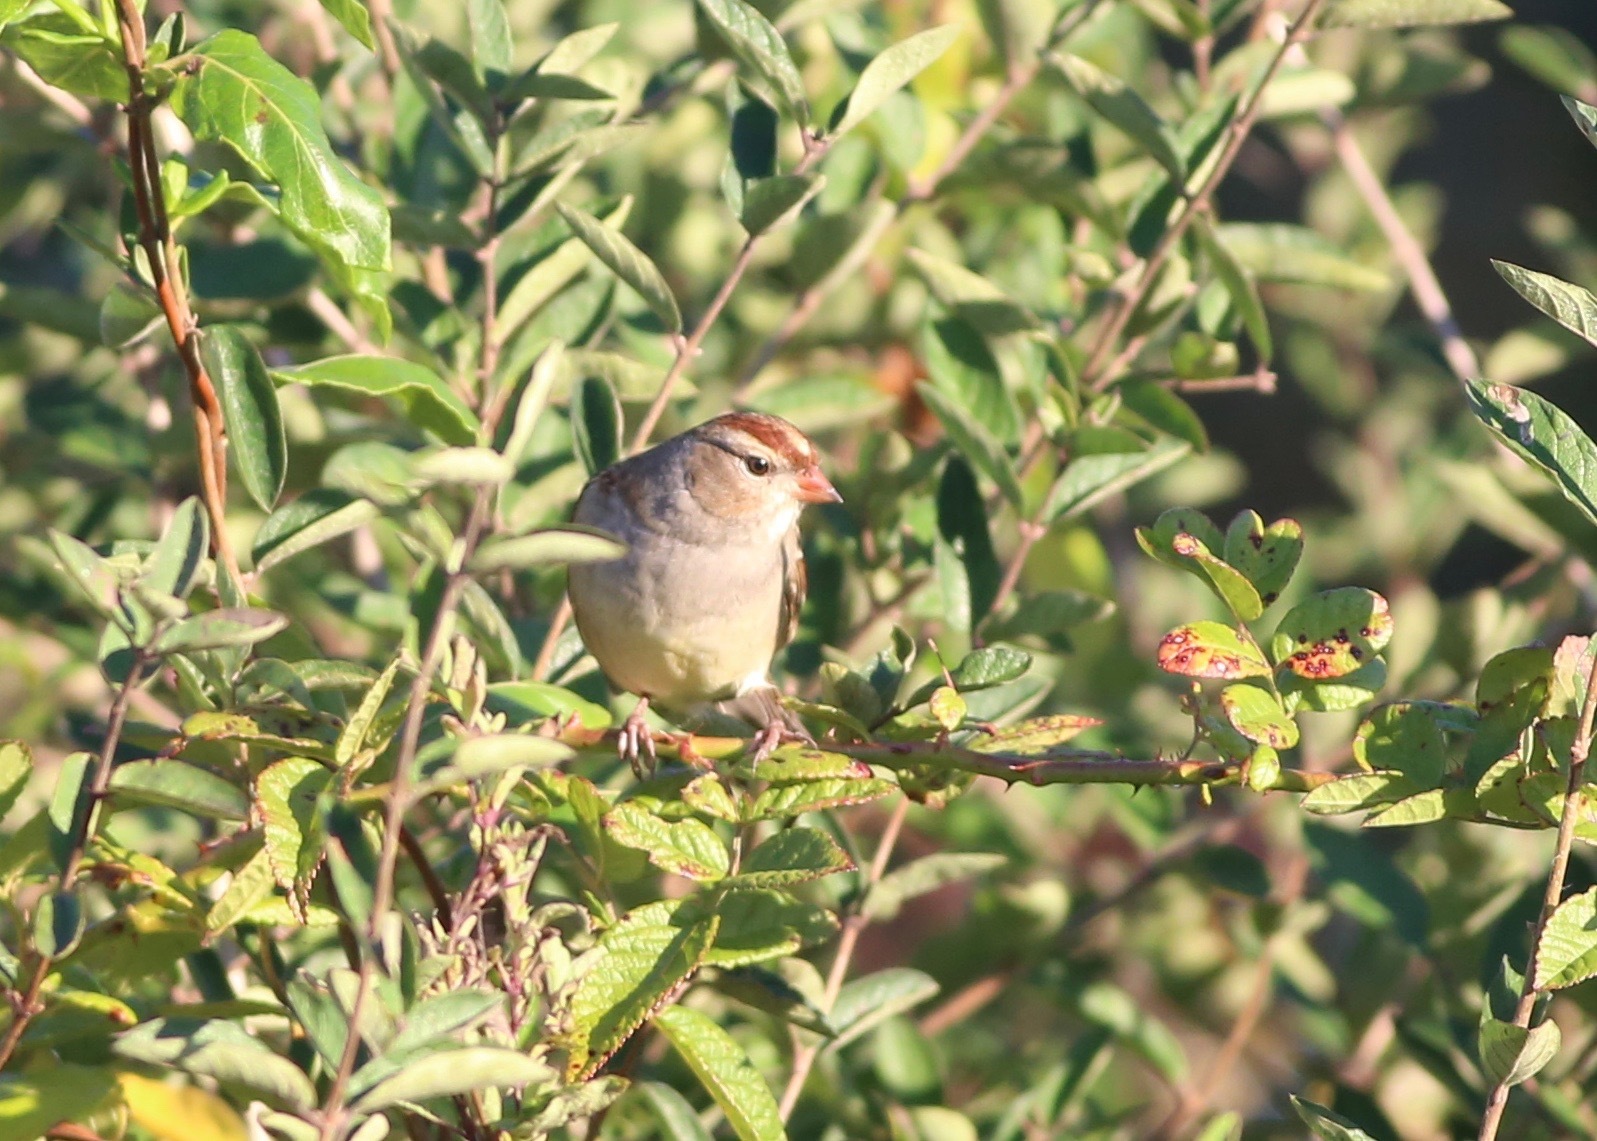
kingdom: Animalia
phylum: Chordata
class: Aves
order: Passeriformes
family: Passerellidae
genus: Zonotrichia
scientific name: Zonotrichia leucophrys
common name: White-crowned sparrow
